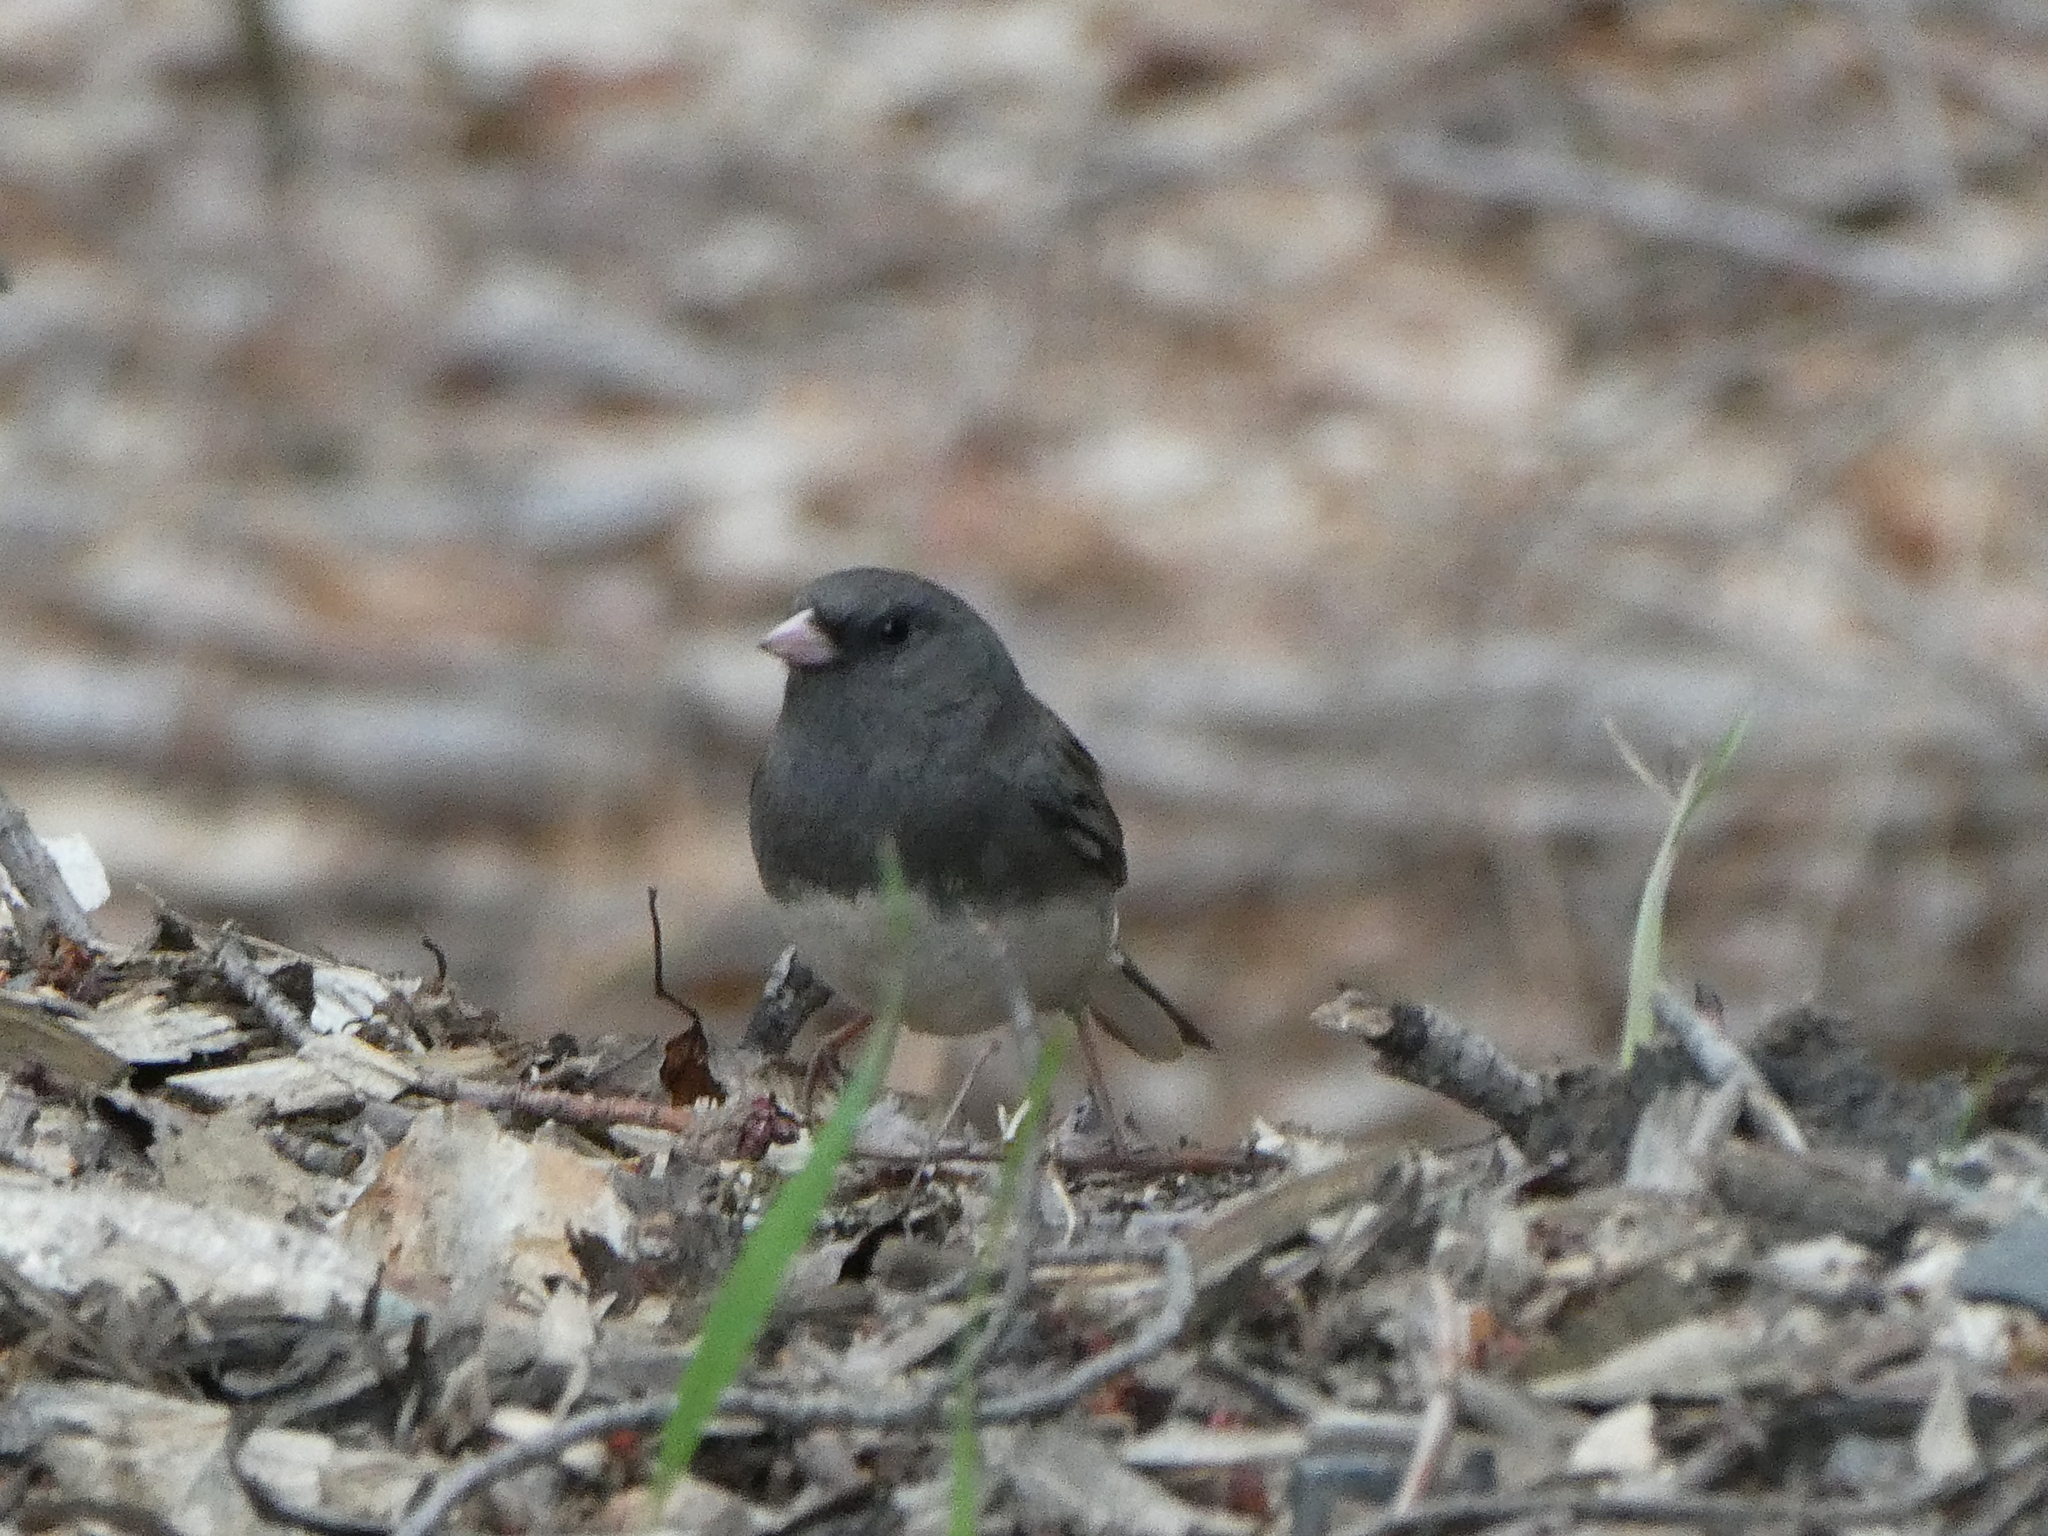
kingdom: Animalia
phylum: Chordata
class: Aves
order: Passeriformes
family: Passerellidae
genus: Junco
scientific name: Junco hyemalis
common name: Dark-eyed junco
